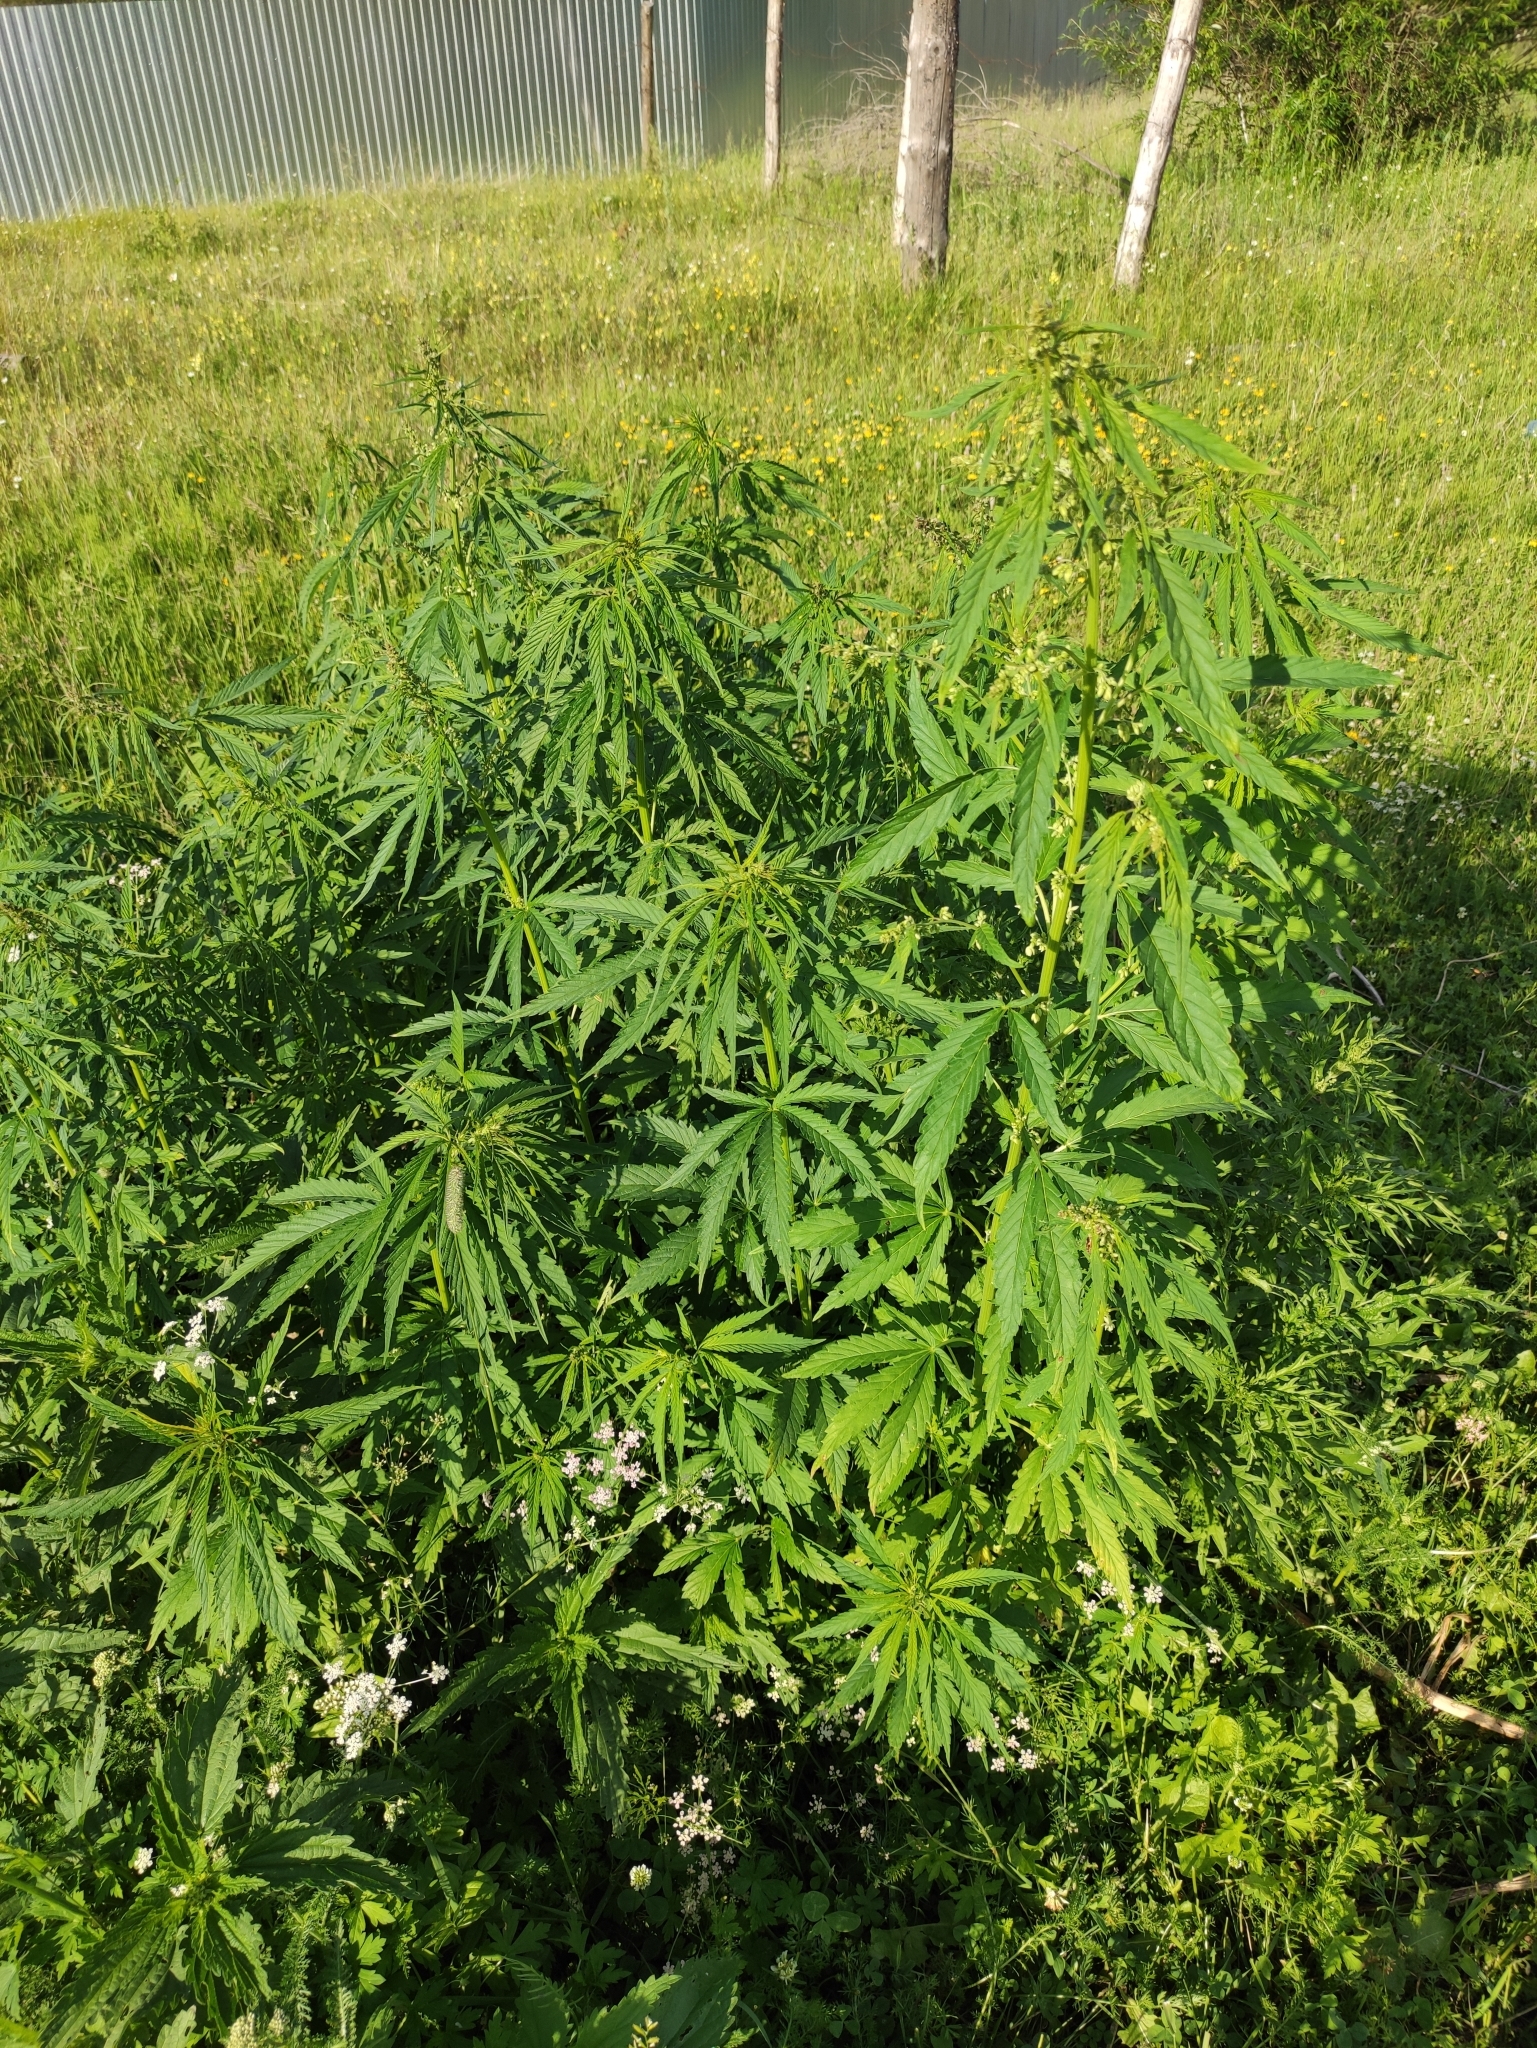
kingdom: Plantae
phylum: Tracheophyta
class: Magnoliopsida
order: Rosales
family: Cannabaceae
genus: Cannabis
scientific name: Cannabis sativa
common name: Hemp
